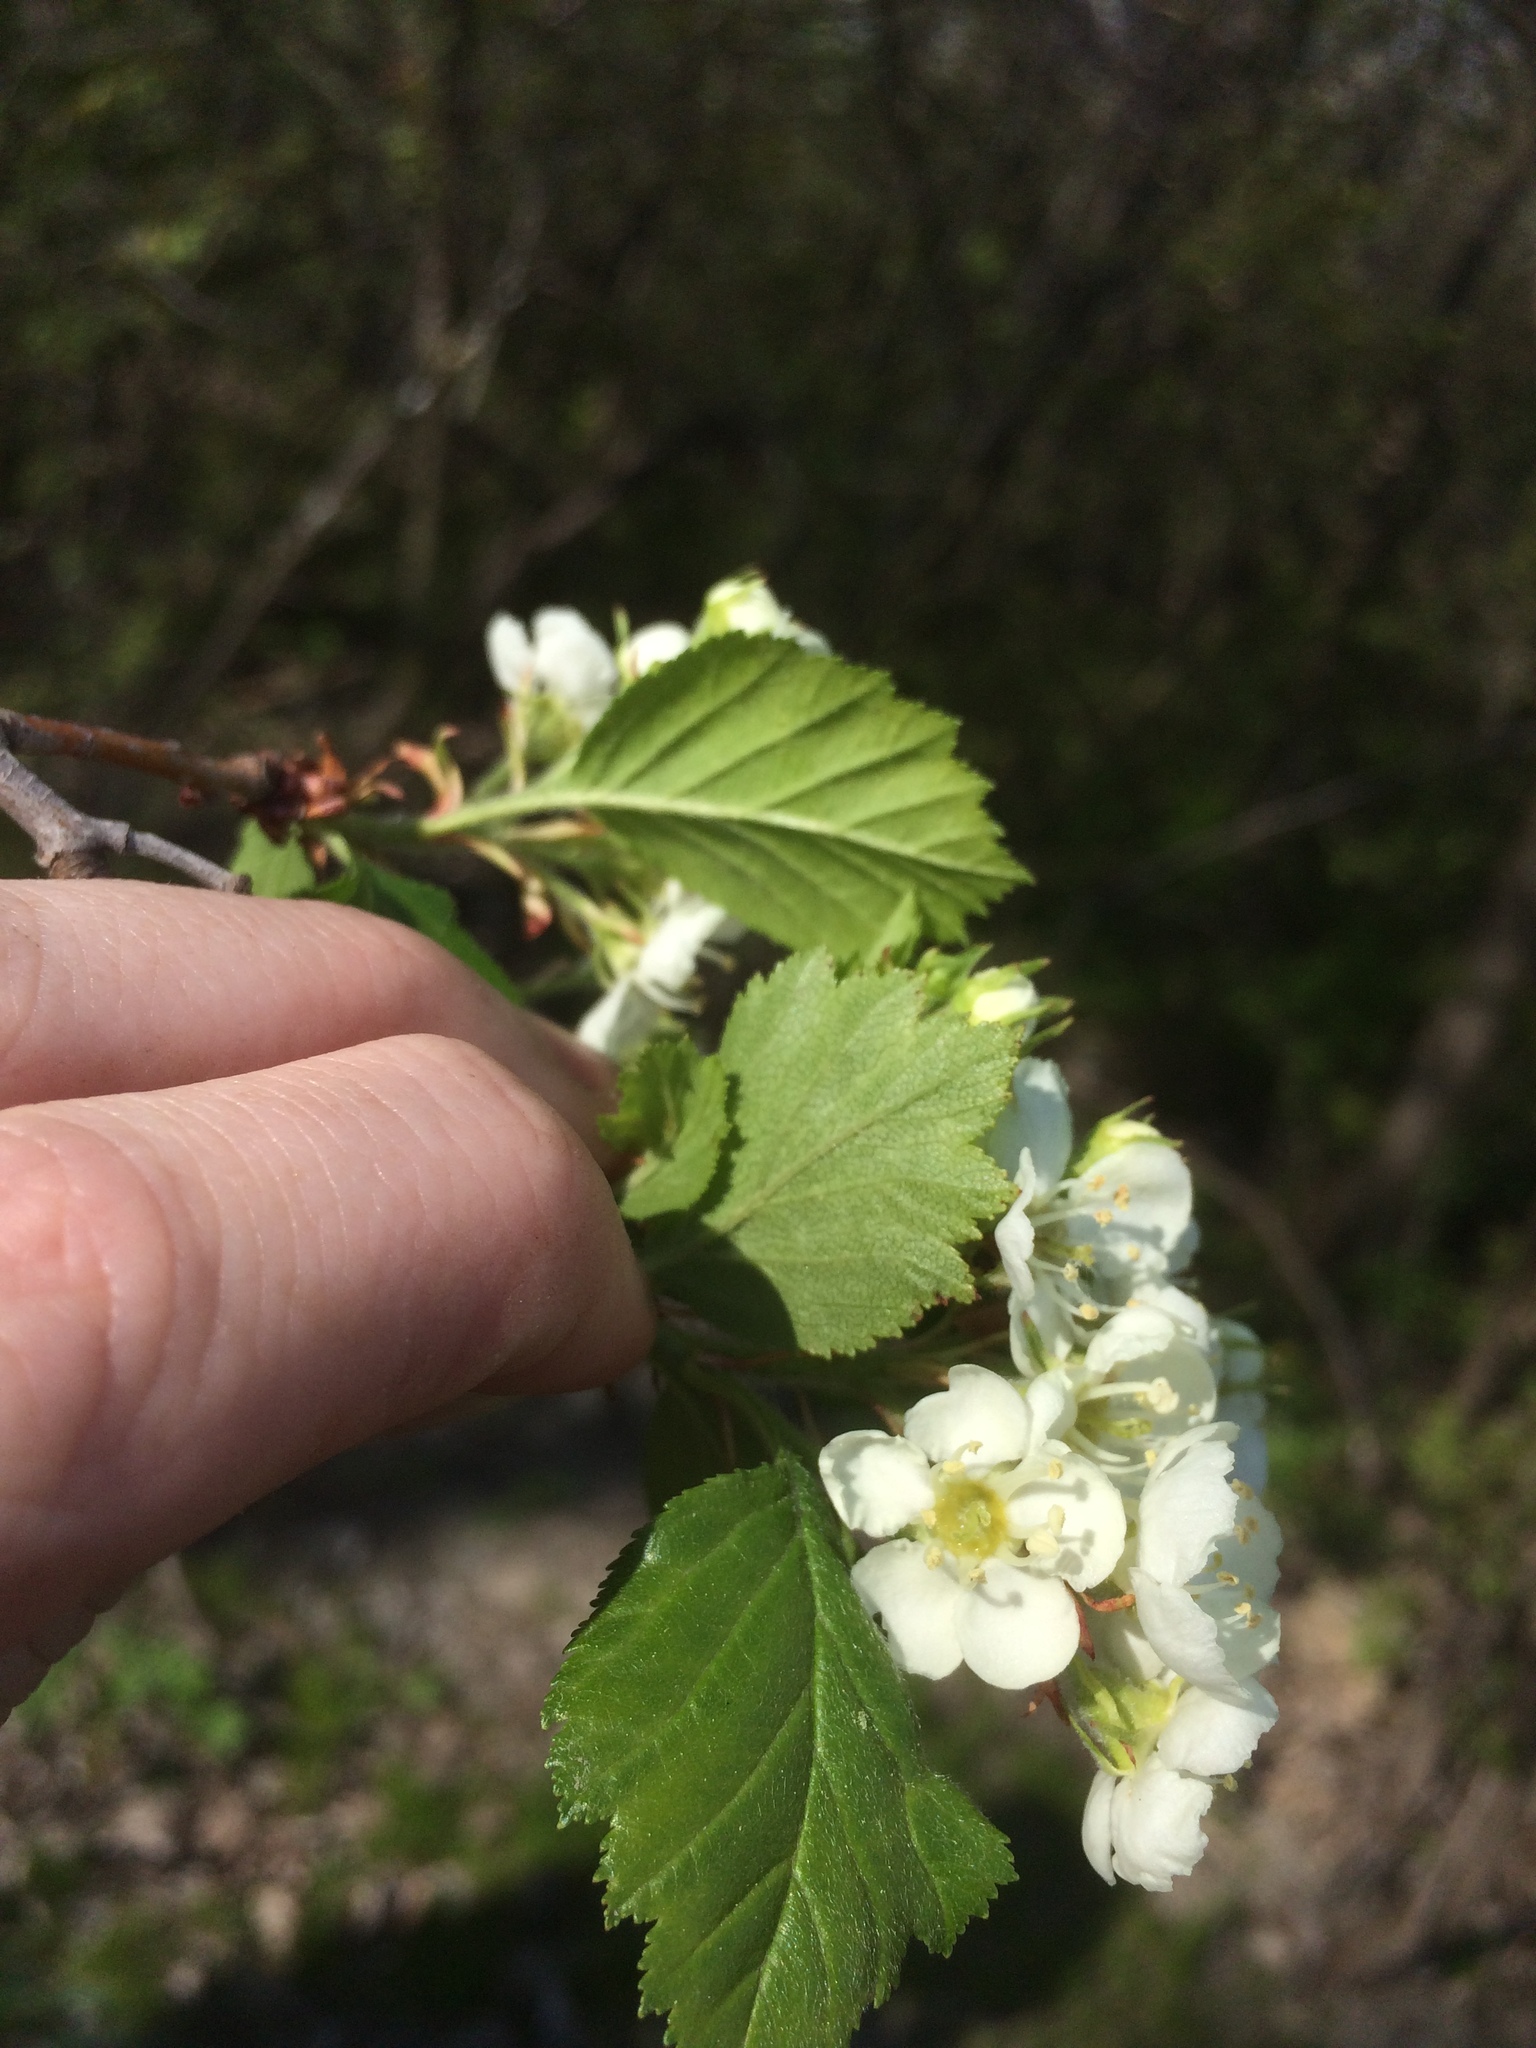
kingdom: Plantae
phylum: Tracheophyta
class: Magnoliopsida
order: Rosales
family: Rosaceae
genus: Crataegus
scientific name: Crataegus chrysocarpa
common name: Fire-berry hawthorn
